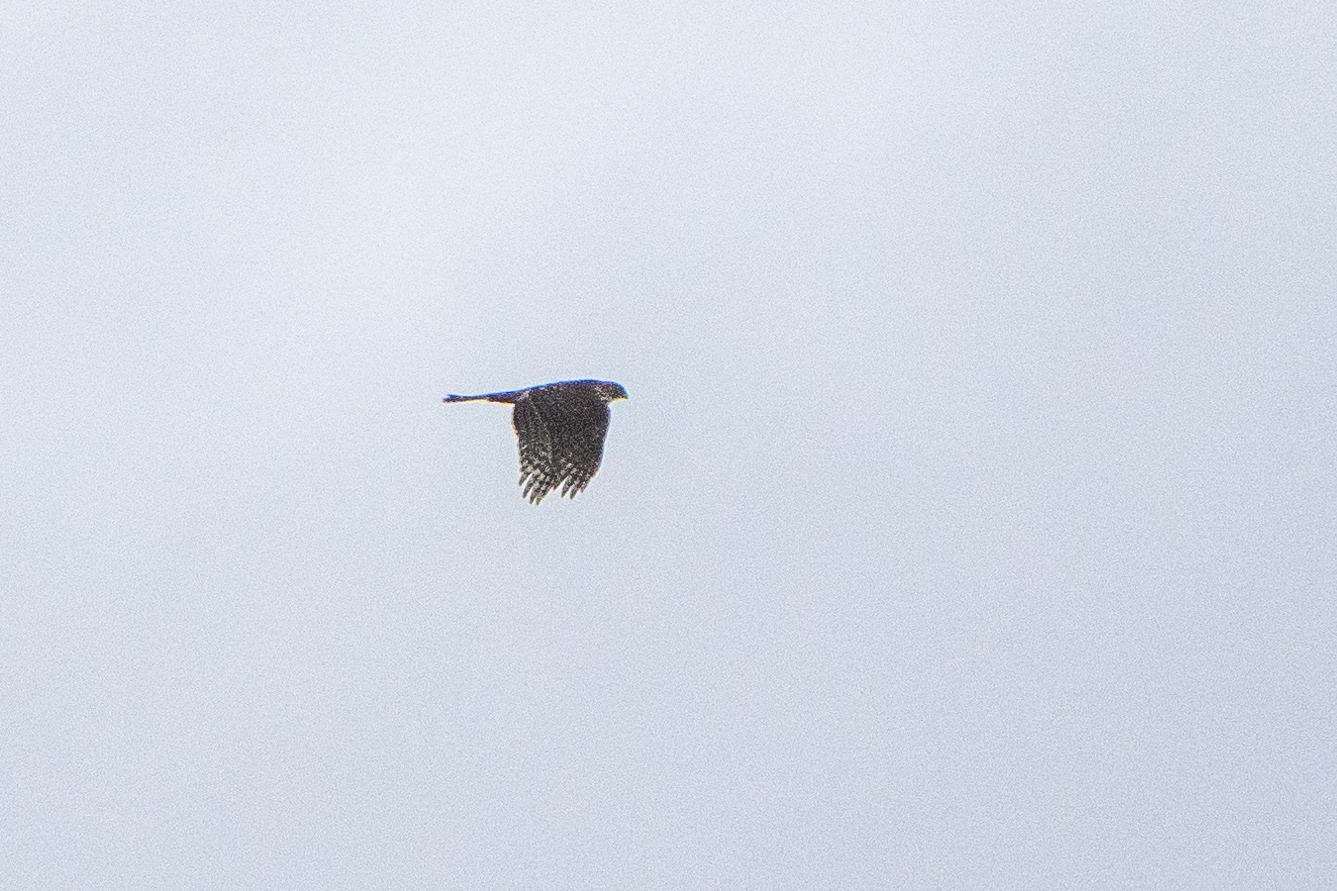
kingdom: Animalia
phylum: Chordata
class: Aves
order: Accipitriformes
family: Accipitridae
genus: Accipiter
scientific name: Accipiter cooperii
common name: Cooper's hawk
